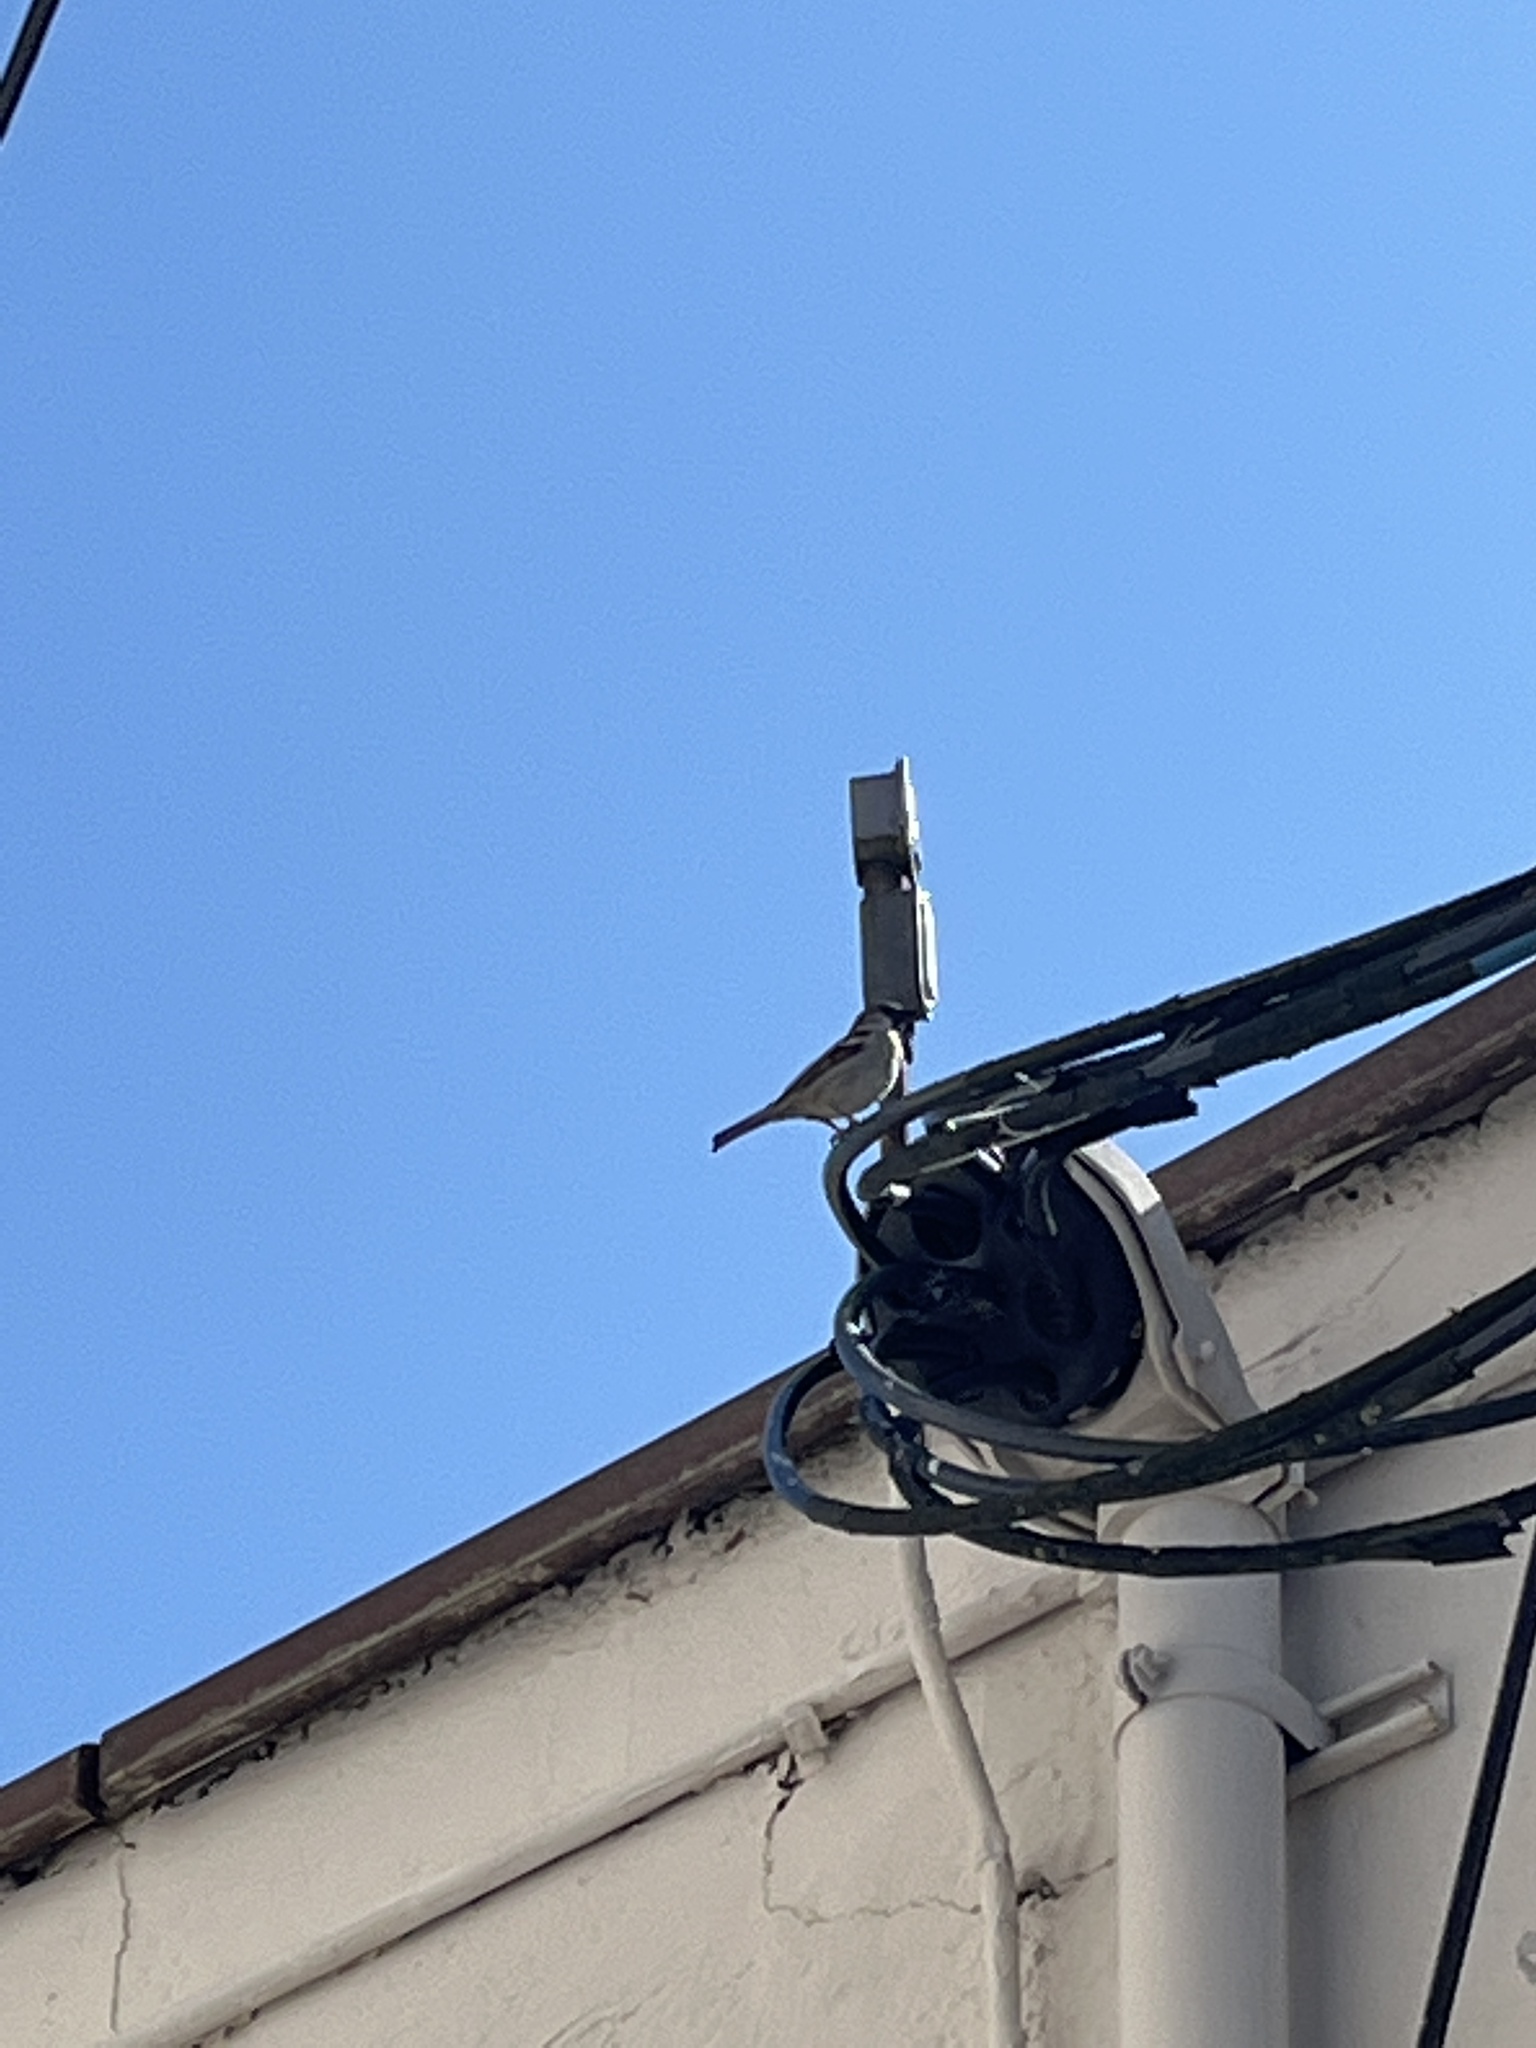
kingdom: Animalia
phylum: Chordata
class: Aves
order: Passeriformes
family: Passeridae
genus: Passer
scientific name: Passer domesticus
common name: House sparrow
